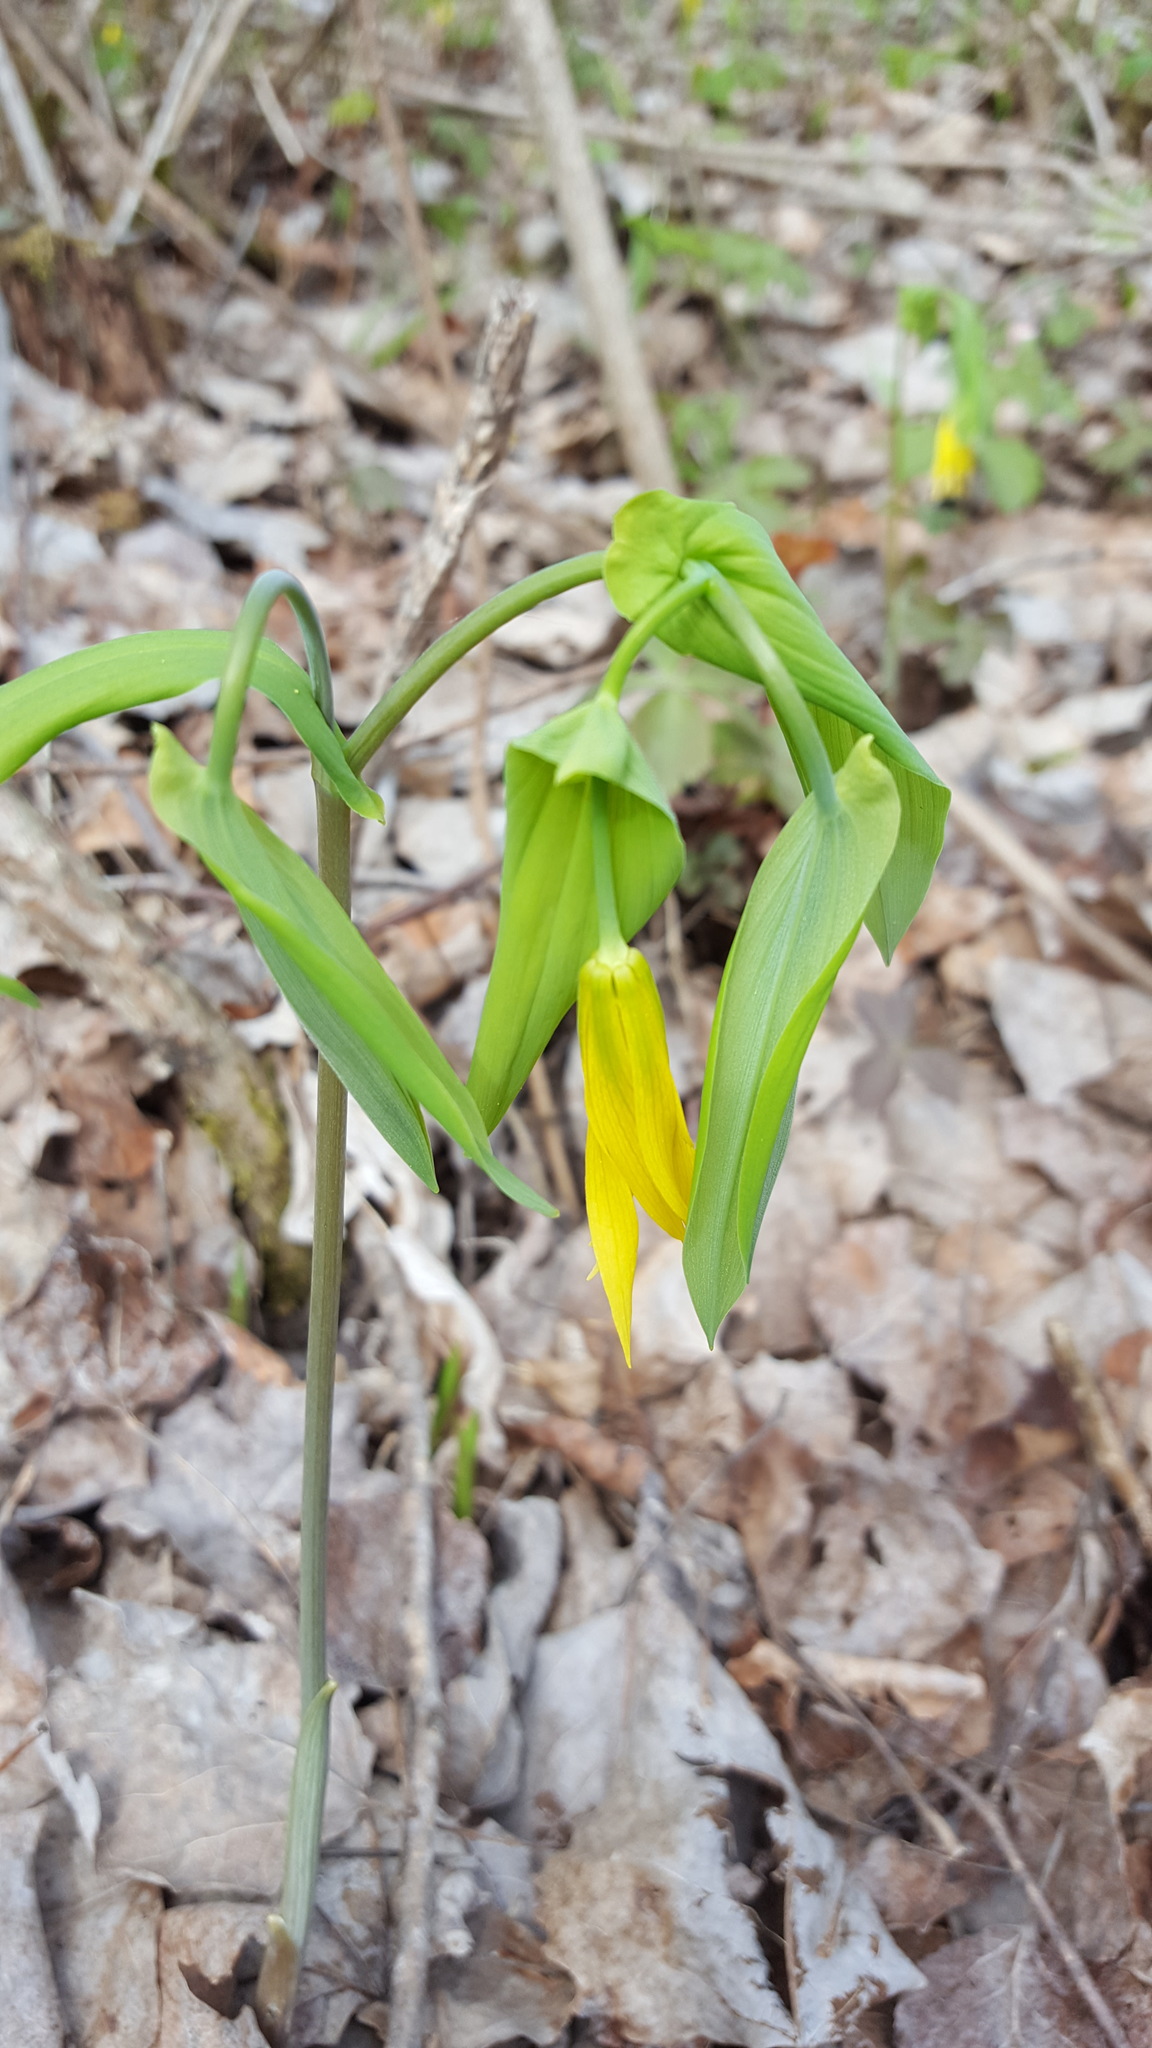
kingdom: Plantae
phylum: Tracheophyta
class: Liliopsida
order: Liliales
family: Colchicaceae
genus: Uvularia
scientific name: Uvularia grandiflora
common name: Bellwort
